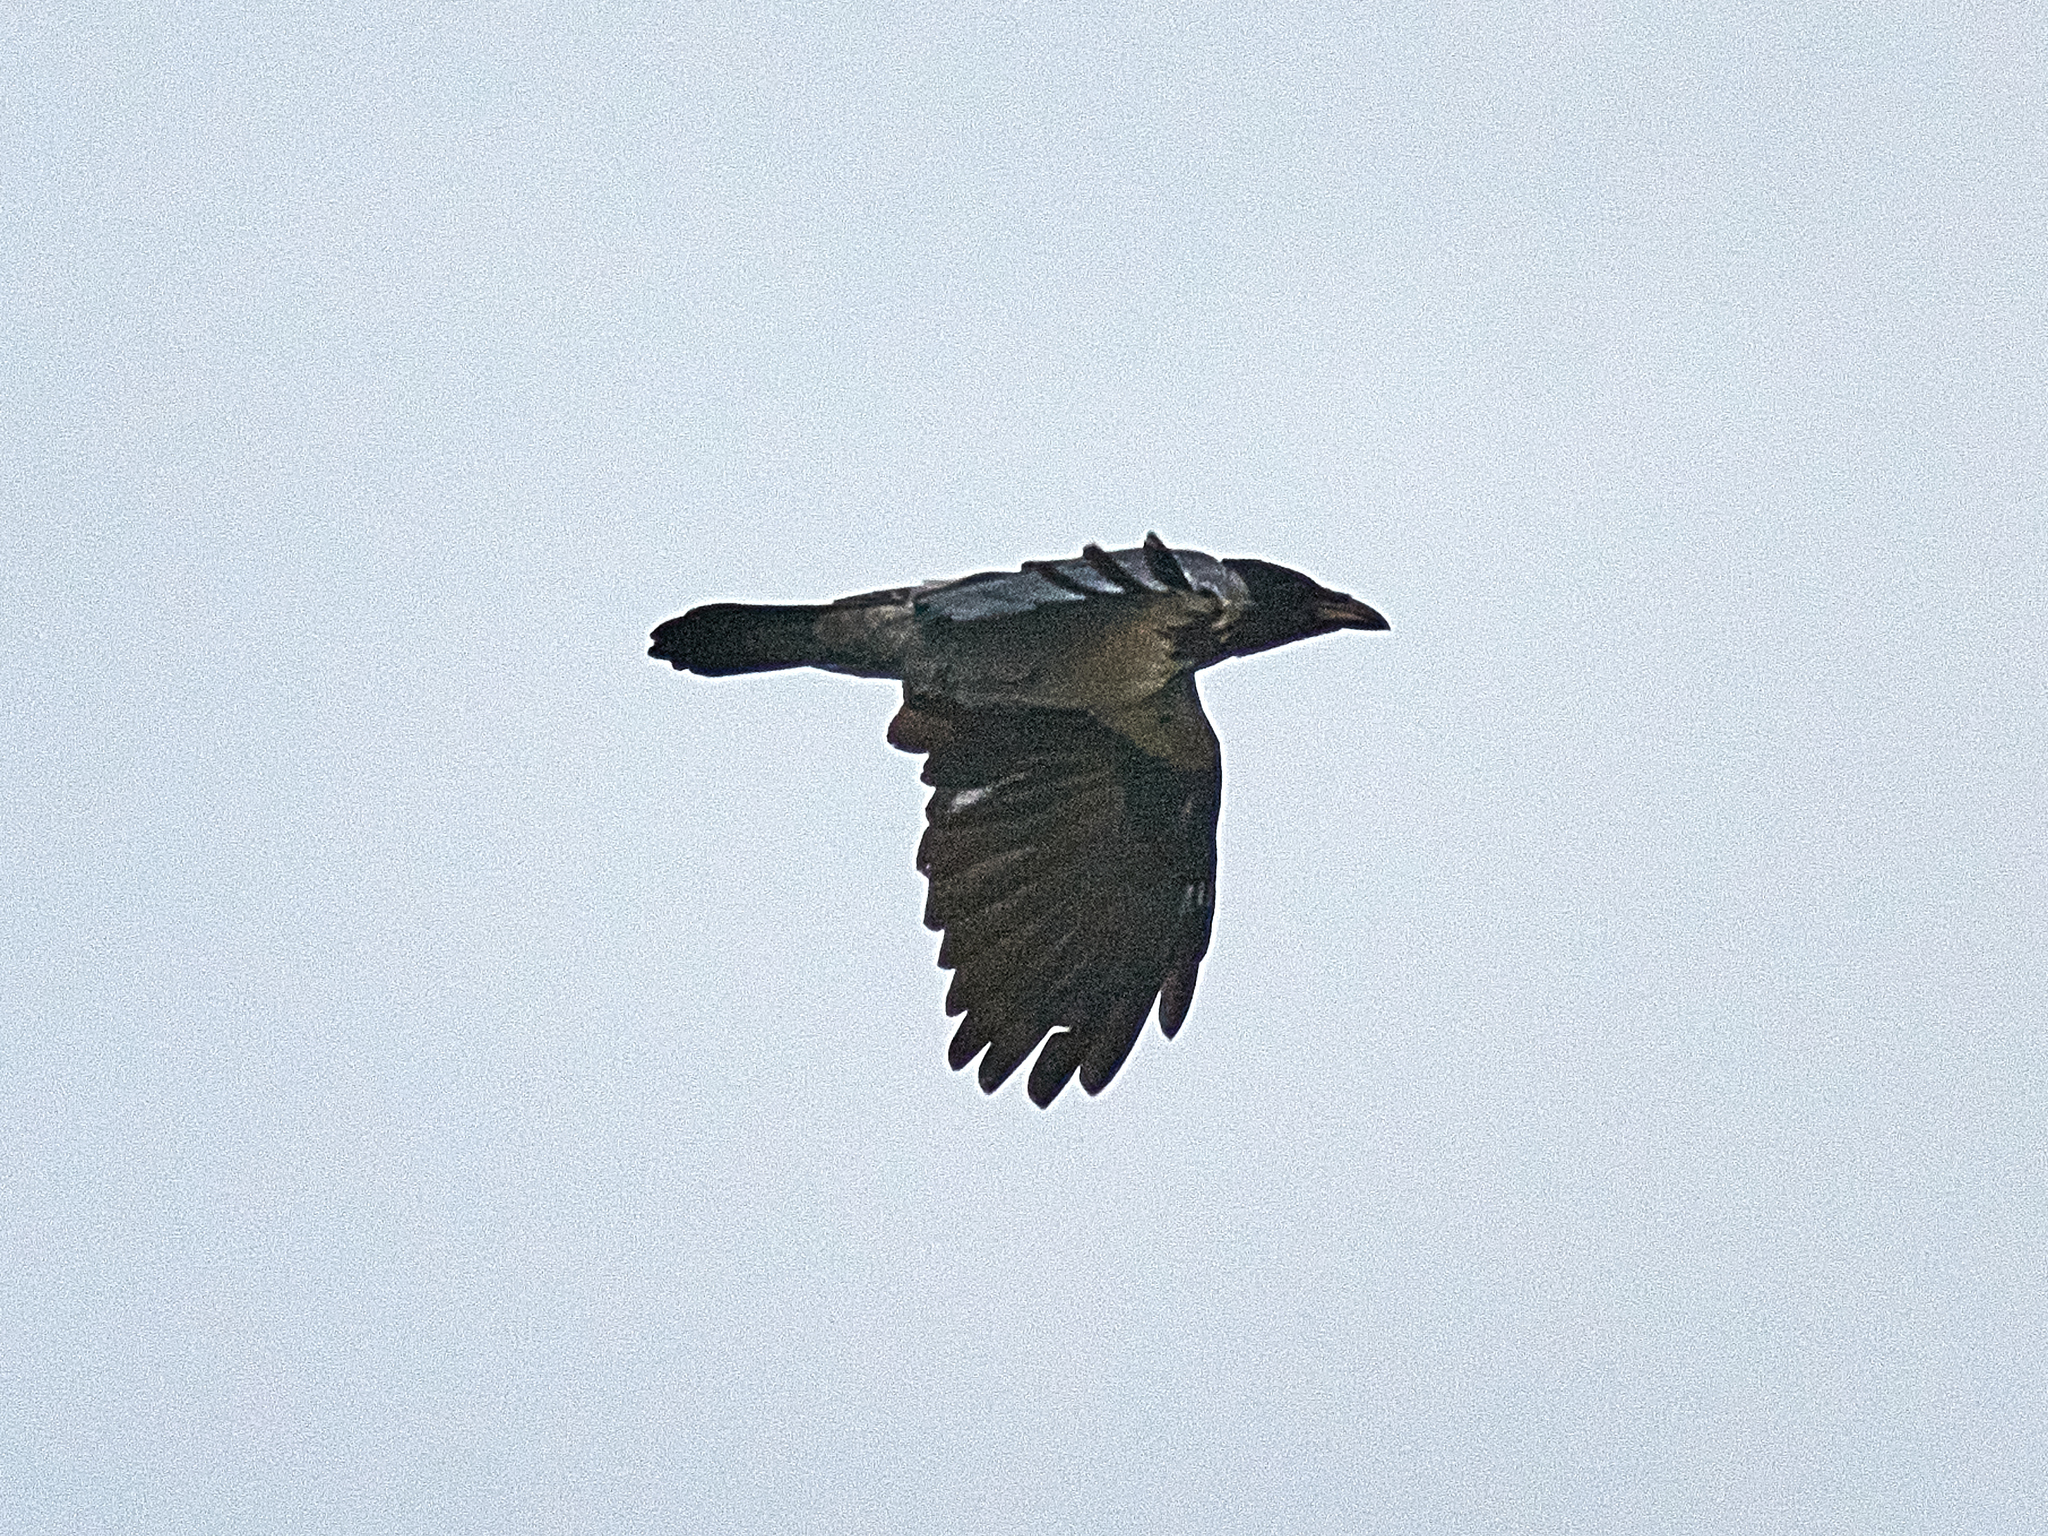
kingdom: Animalia
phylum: Chordata
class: Aves
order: Passeriformes
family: Corvidae
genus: Corvus
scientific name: Corvus cornix
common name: Hooded crow
